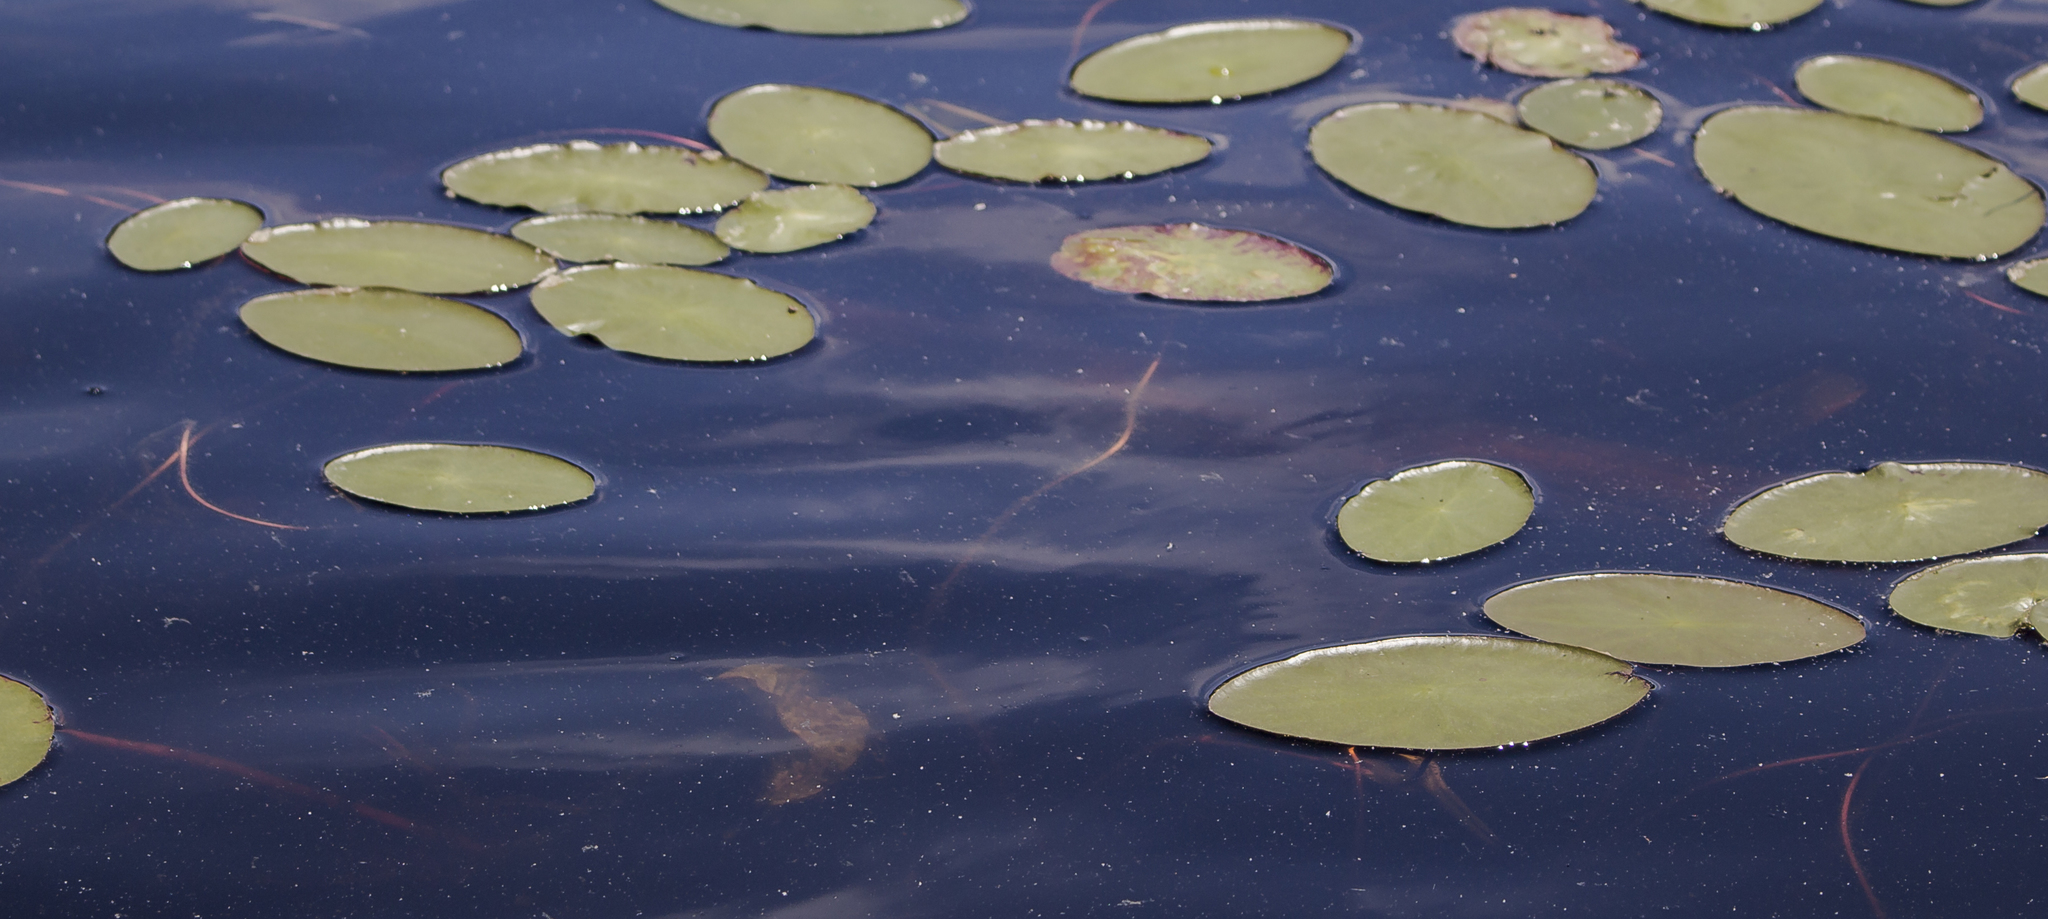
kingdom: Plantae
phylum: Tracheophyta
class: Magnoliopsida
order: Nymphaeales
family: Cabombaceae
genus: Brasenia
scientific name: Brasenia schreberi
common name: Water-shield
